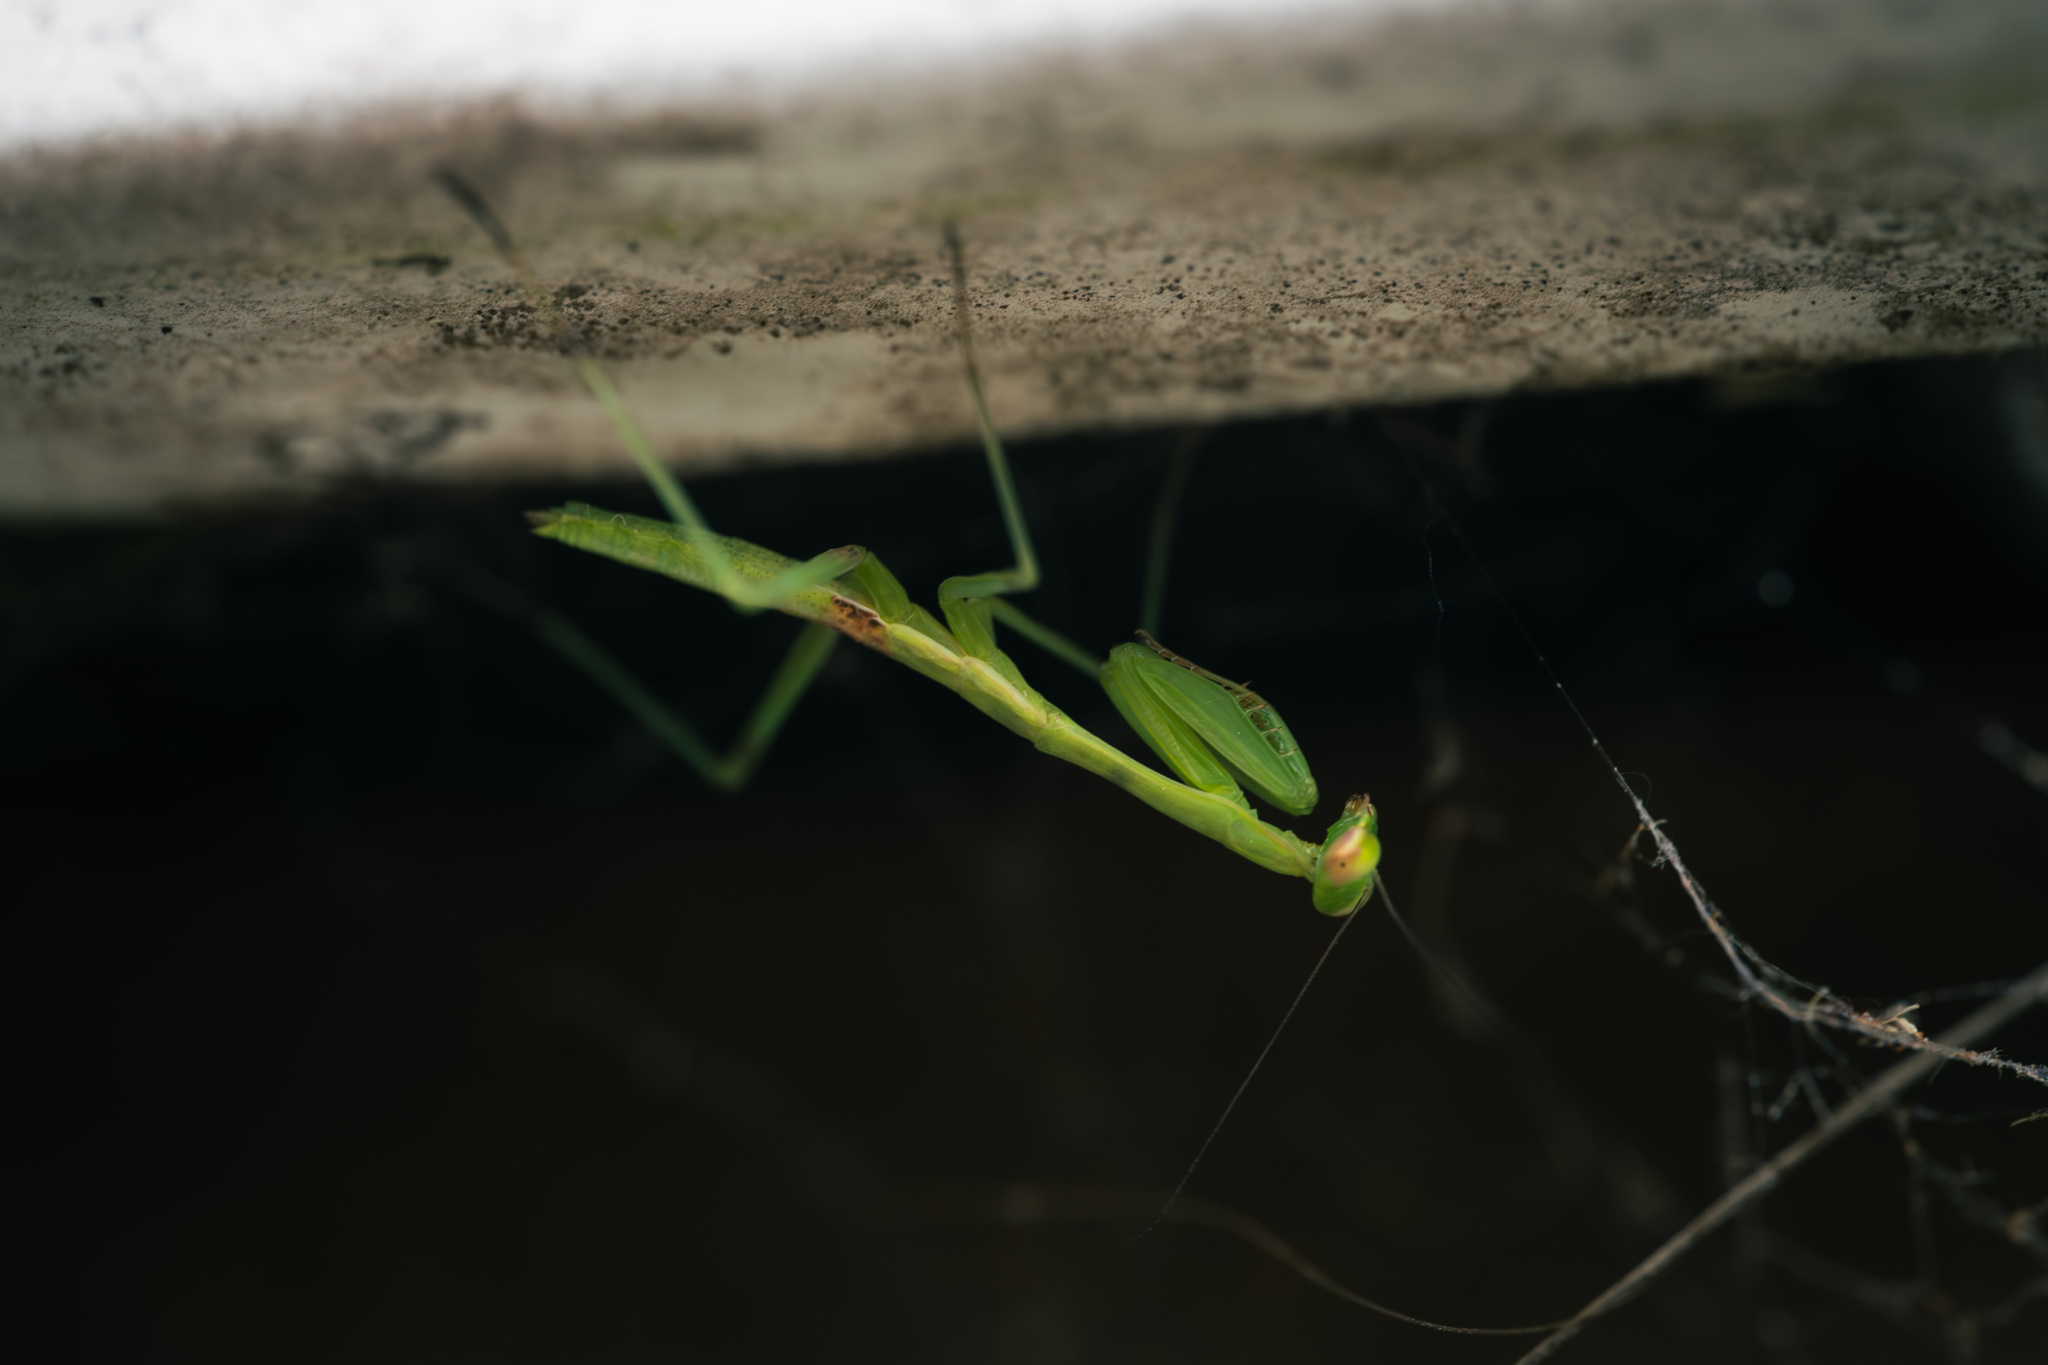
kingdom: Animalia
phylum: Arthropoda
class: Insecta
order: Mantodea
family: Miomantidae
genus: Miomantis
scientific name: Miomantis caffra
